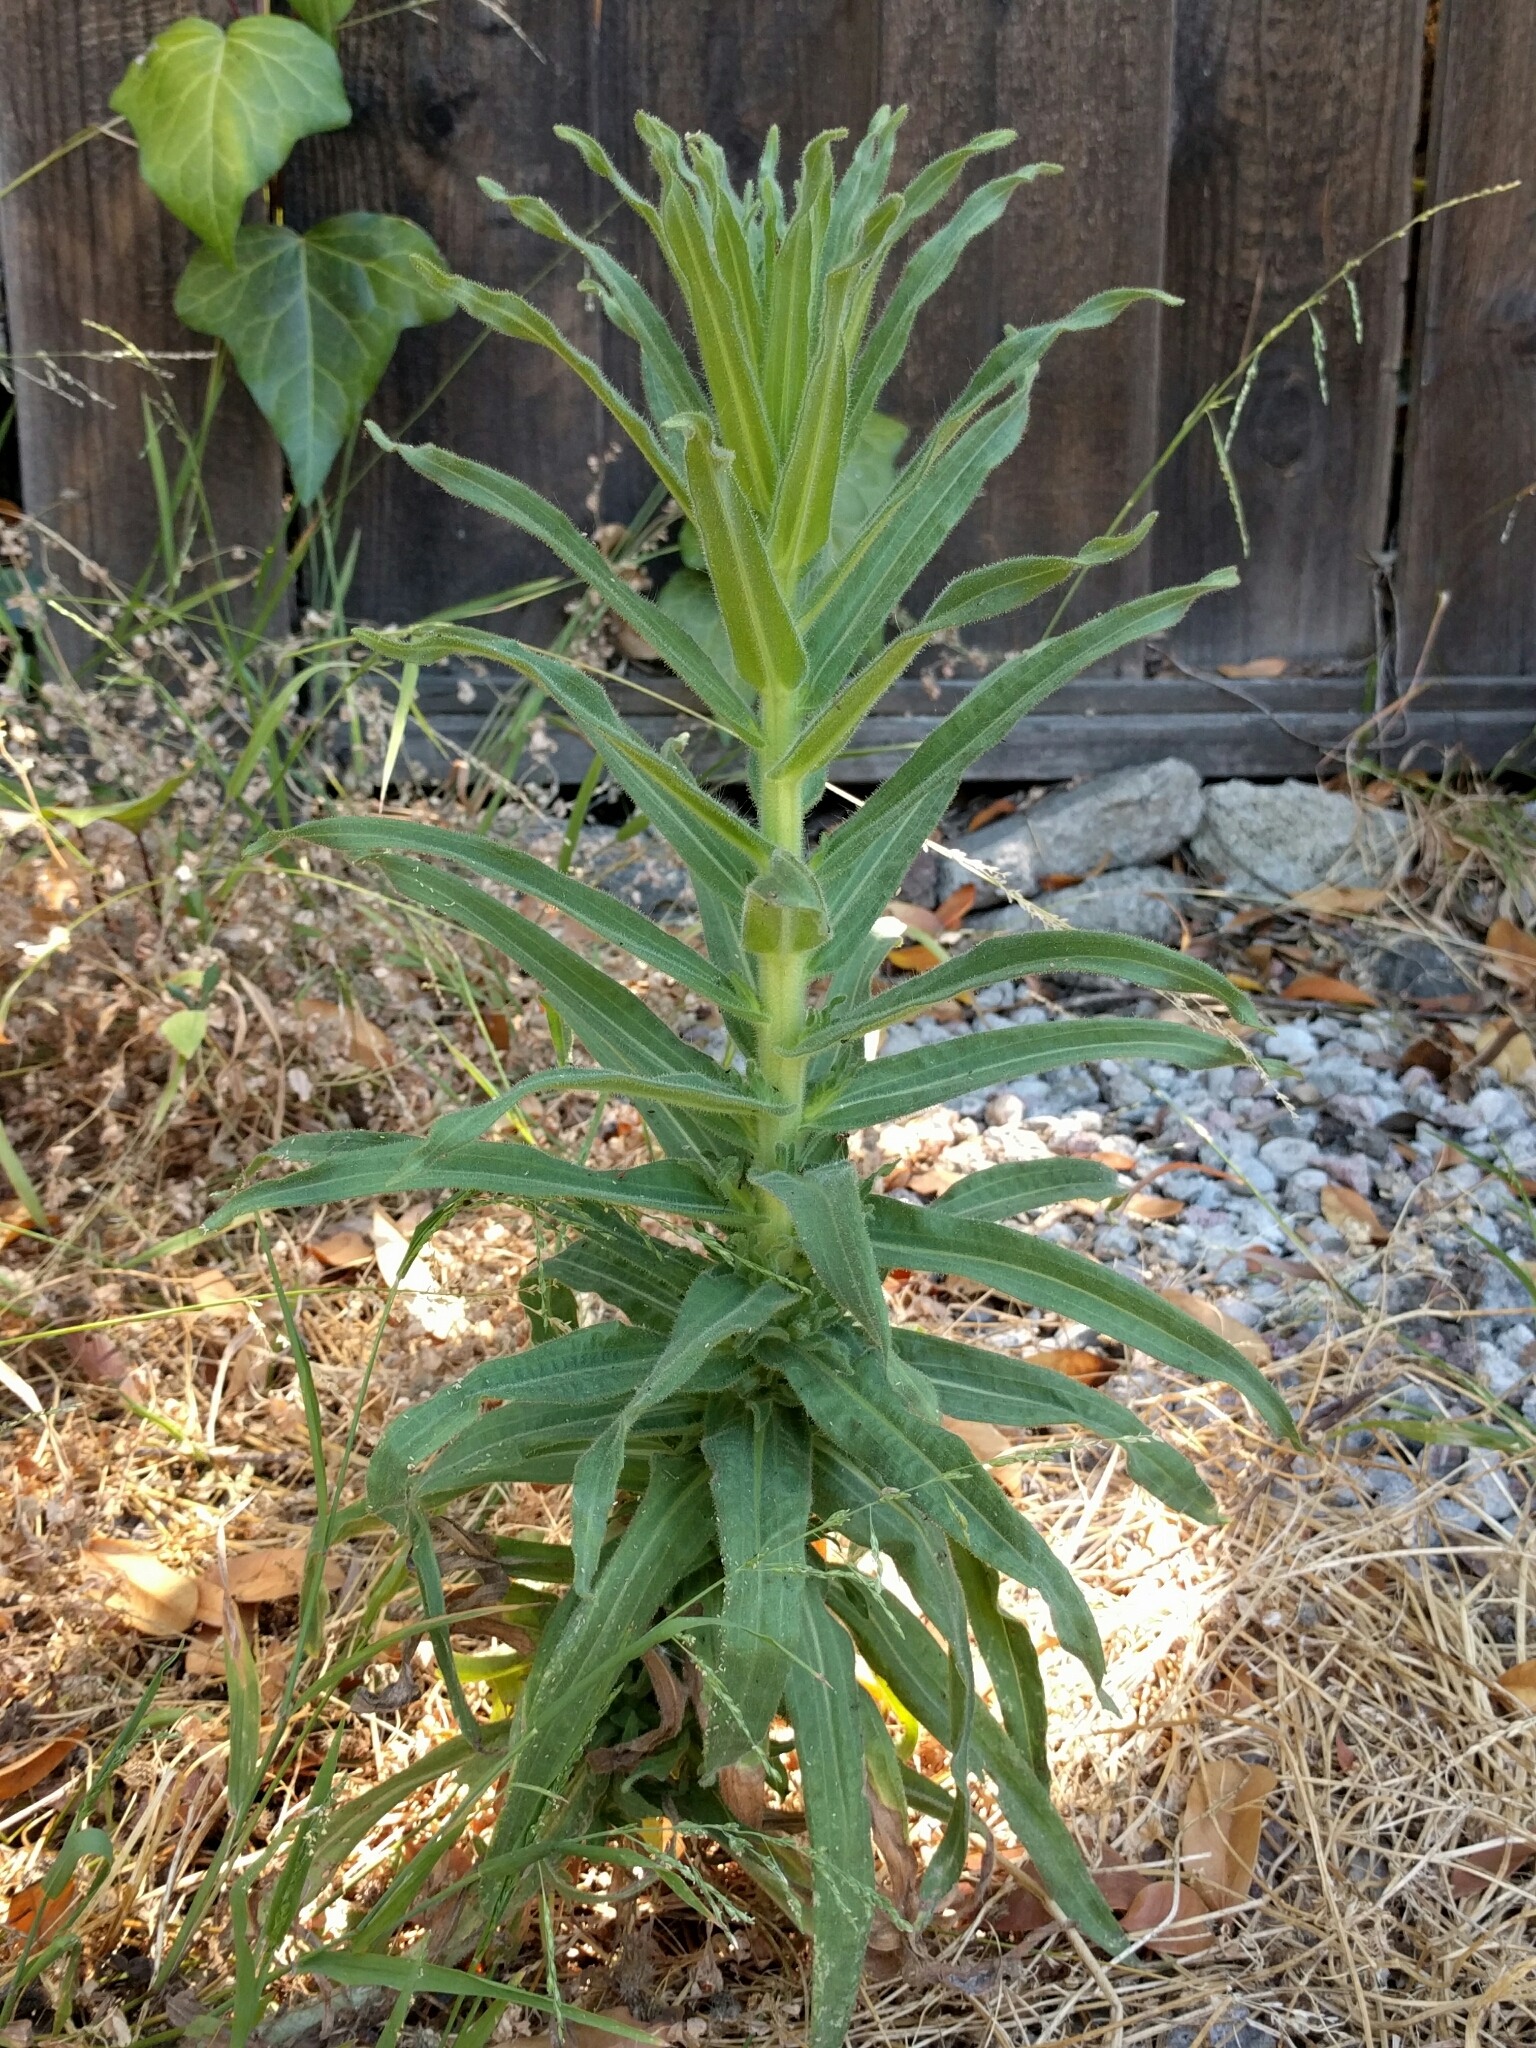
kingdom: Plantae
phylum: Tracheophyta
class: Magnoliopsida
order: Asterales
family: Asteraceae
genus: Madia
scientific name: Madia sativa
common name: Coast tarweed
